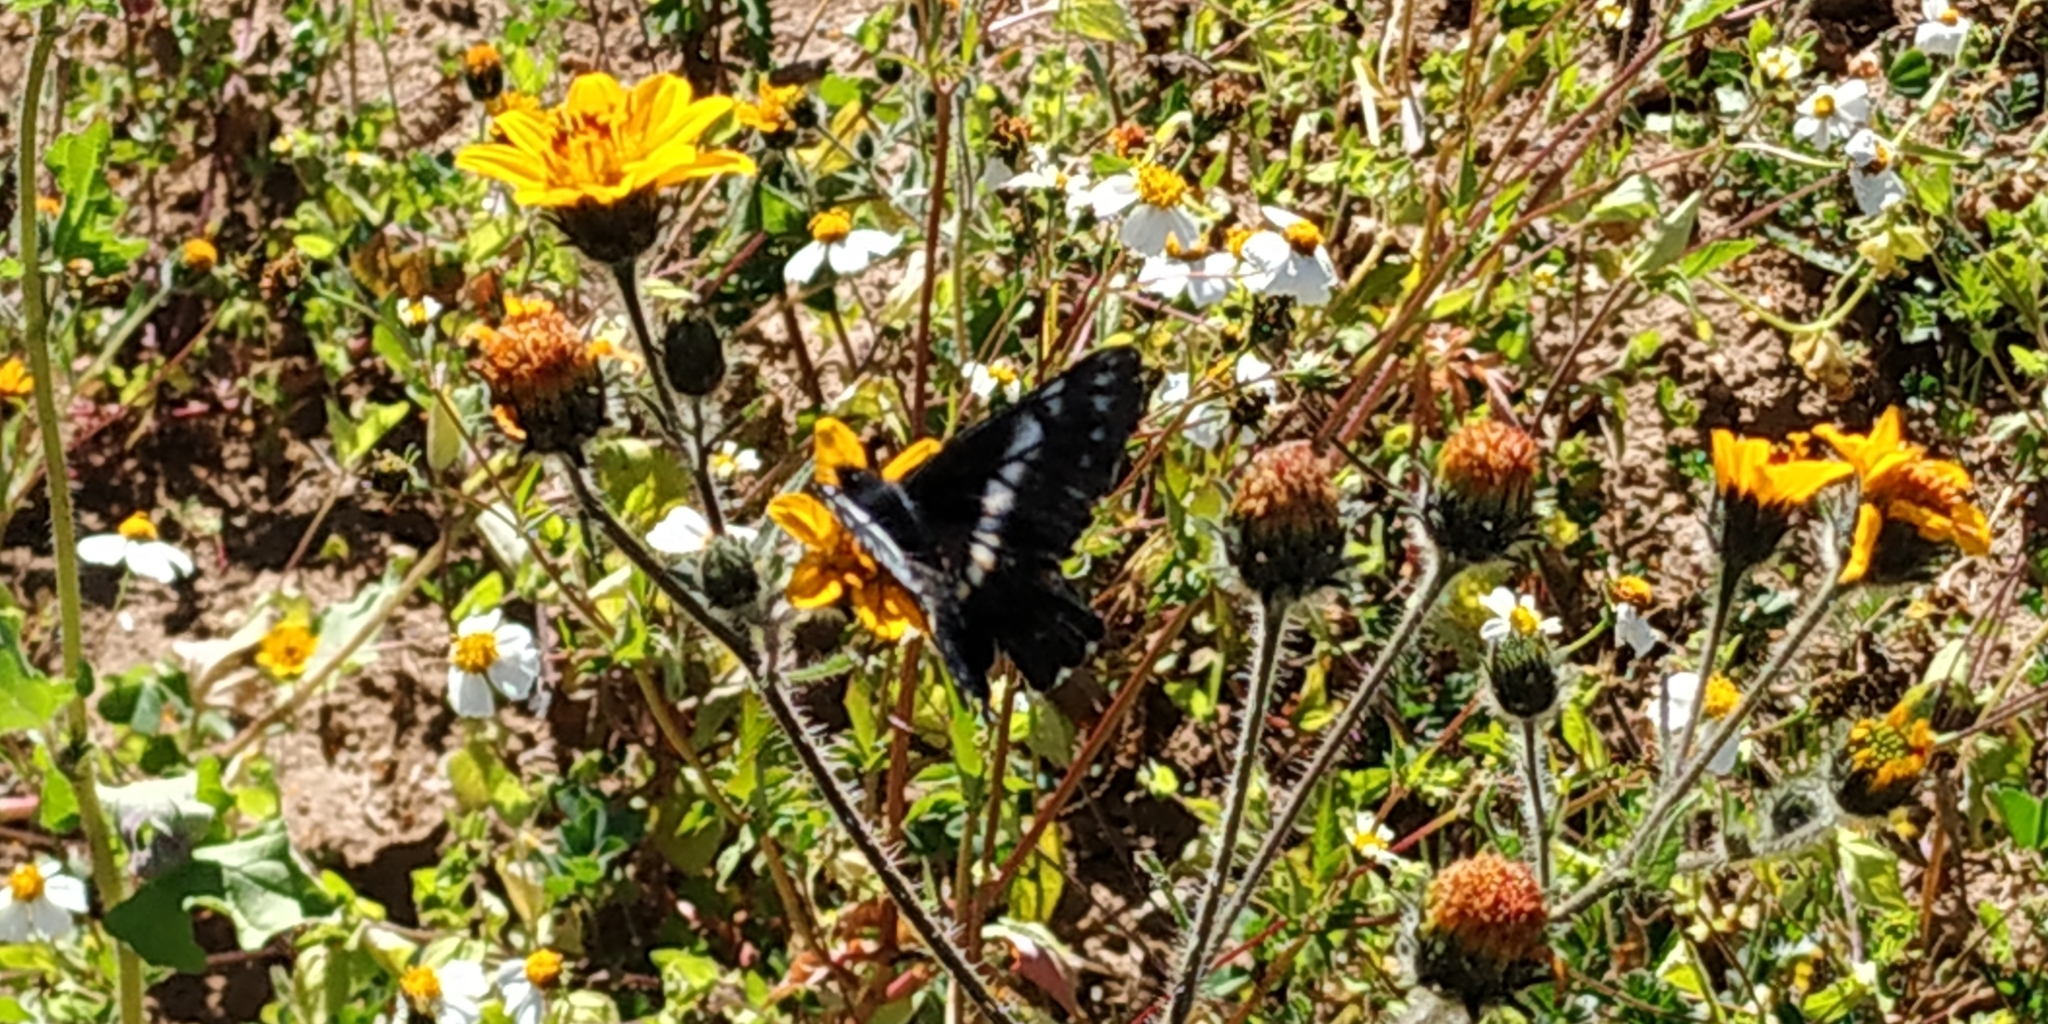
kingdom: Animalia
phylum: Arthropoda
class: Insecta
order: Lepidoptera
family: Pieridae
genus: Archonias
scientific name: Archonias teutila
